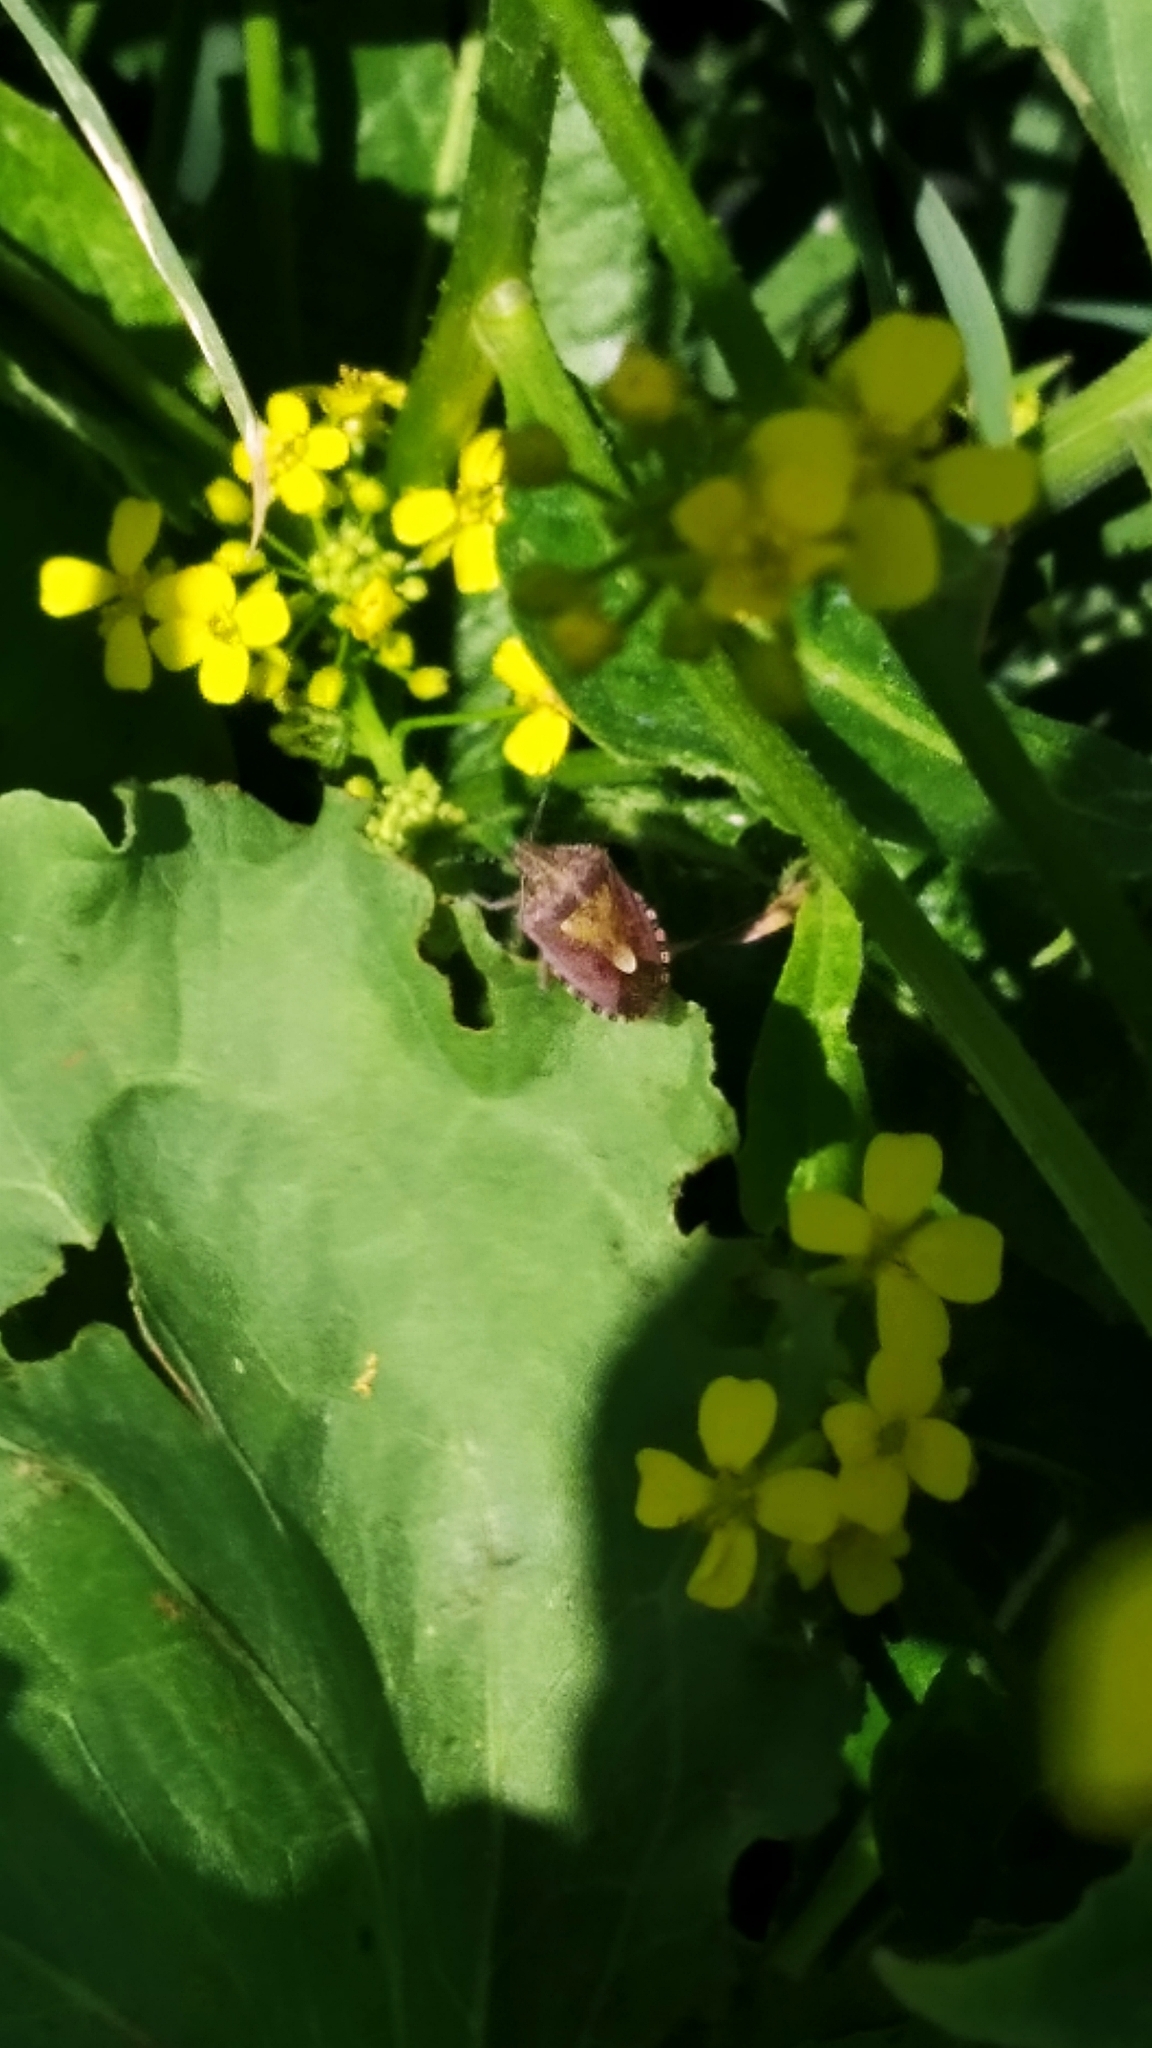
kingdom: Animalia
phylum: Arthropoda
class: Insecta
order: Hemiptera
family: Pentatomidae
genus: Dolycoris
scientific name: Dolycoris baccarum
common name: Sloe bug
